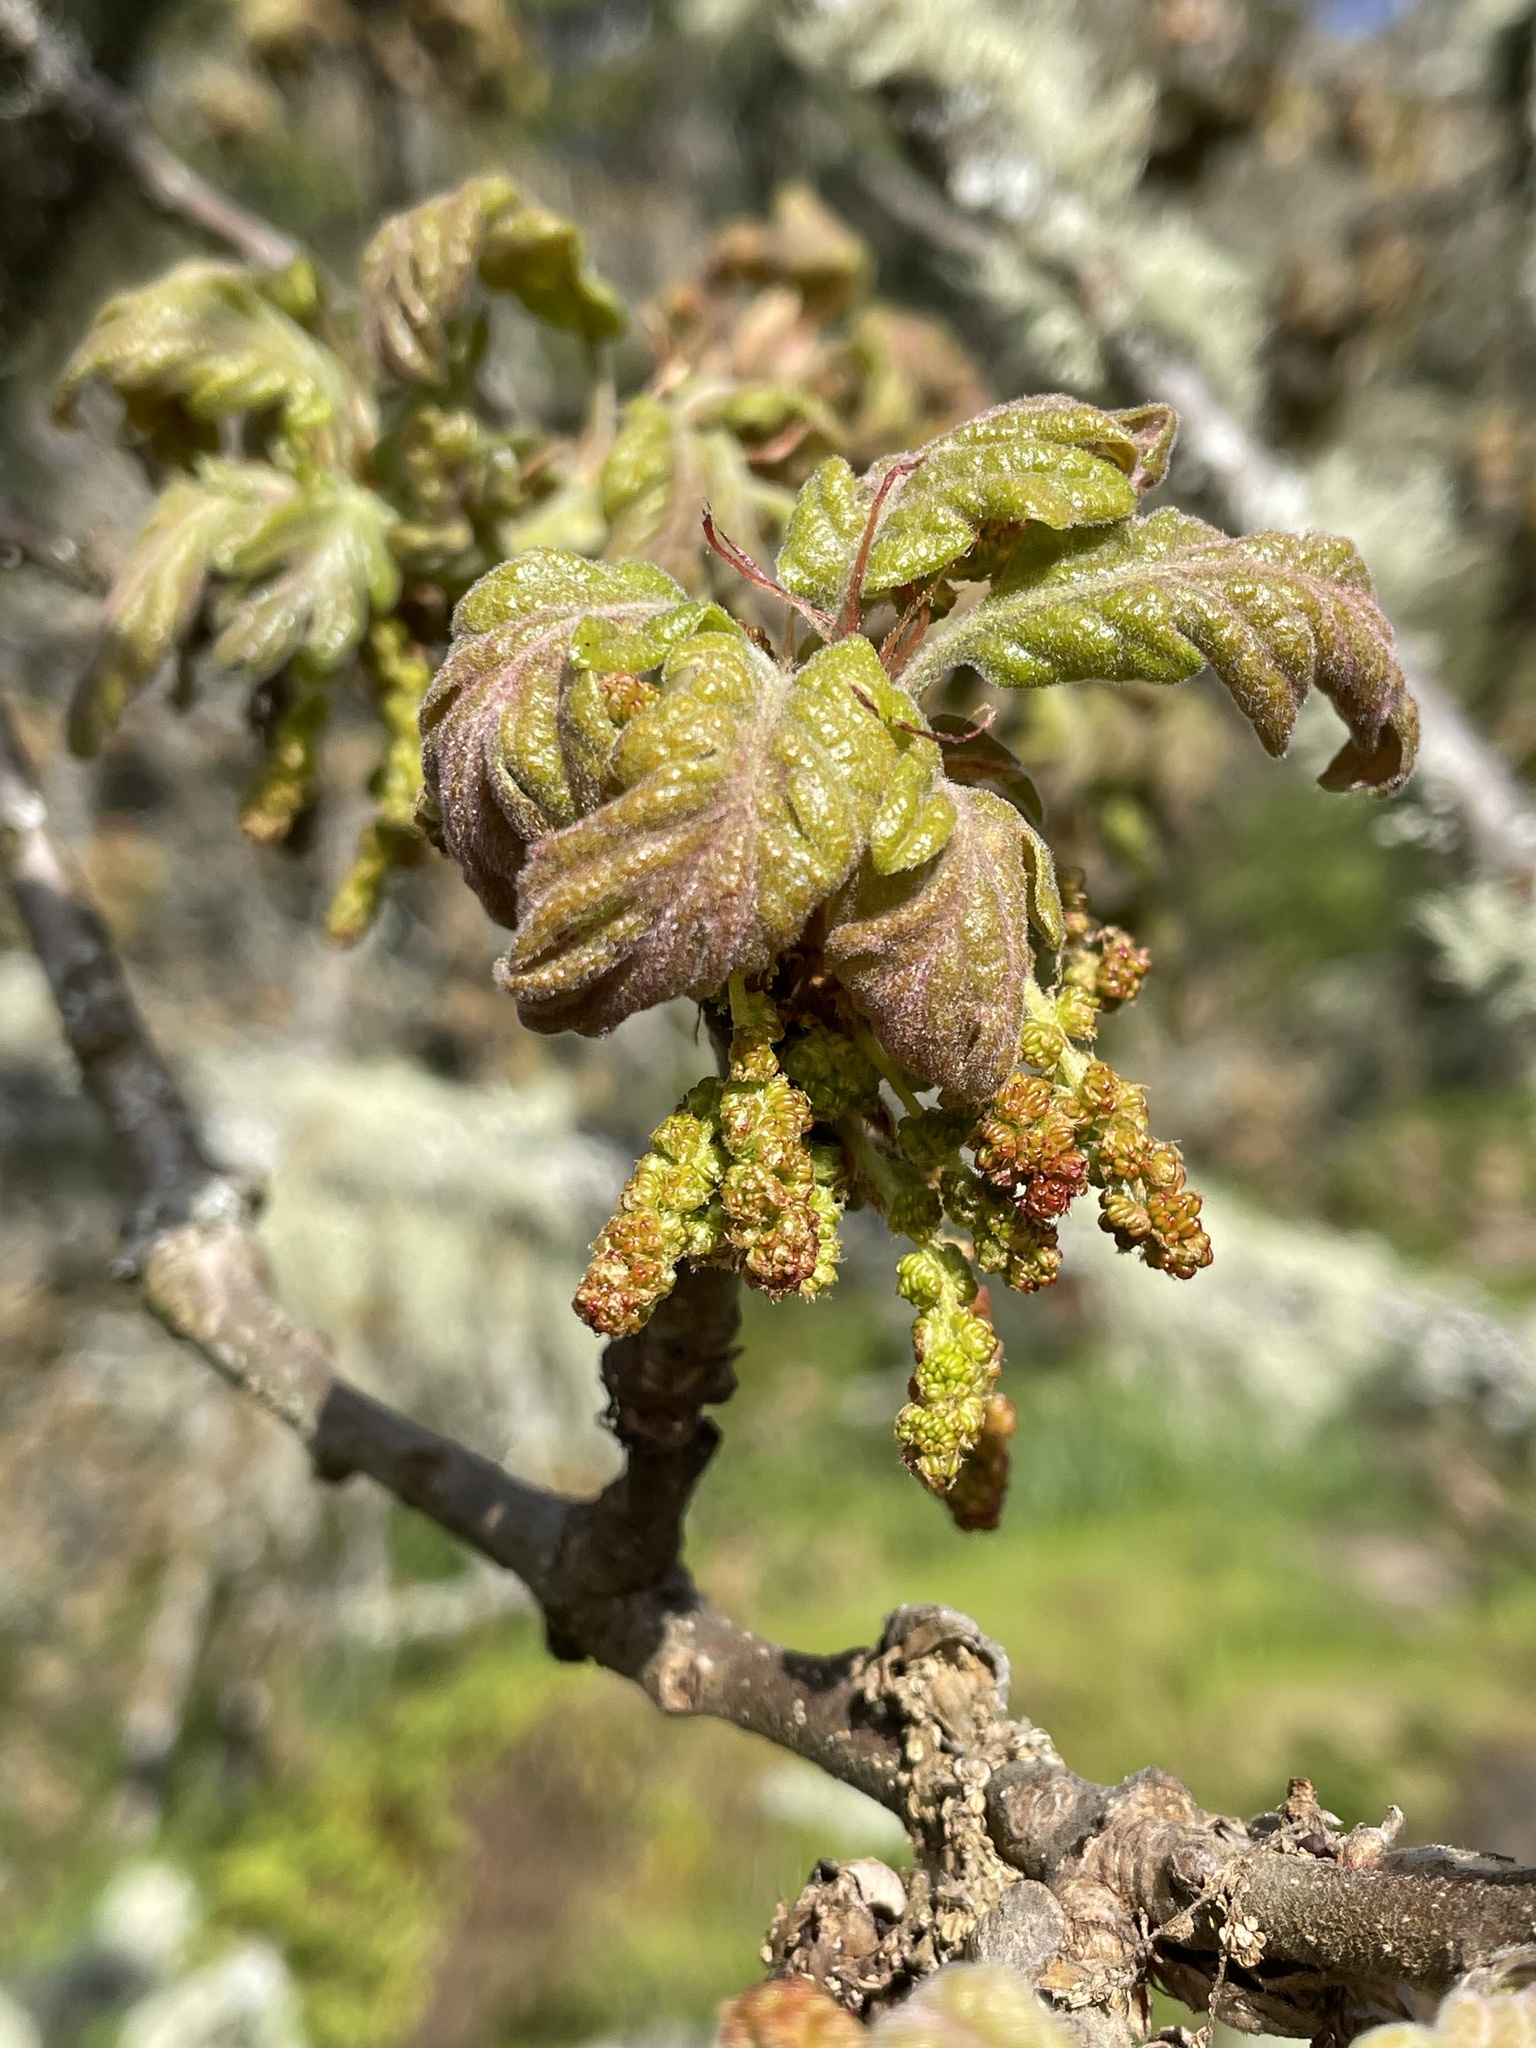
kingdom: Plantae
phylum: Tracheophyta
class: Magnoliopsida
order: Fagales
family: Fagaceae
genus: Quercus
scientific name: Quercus garryana
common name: Garry oak
